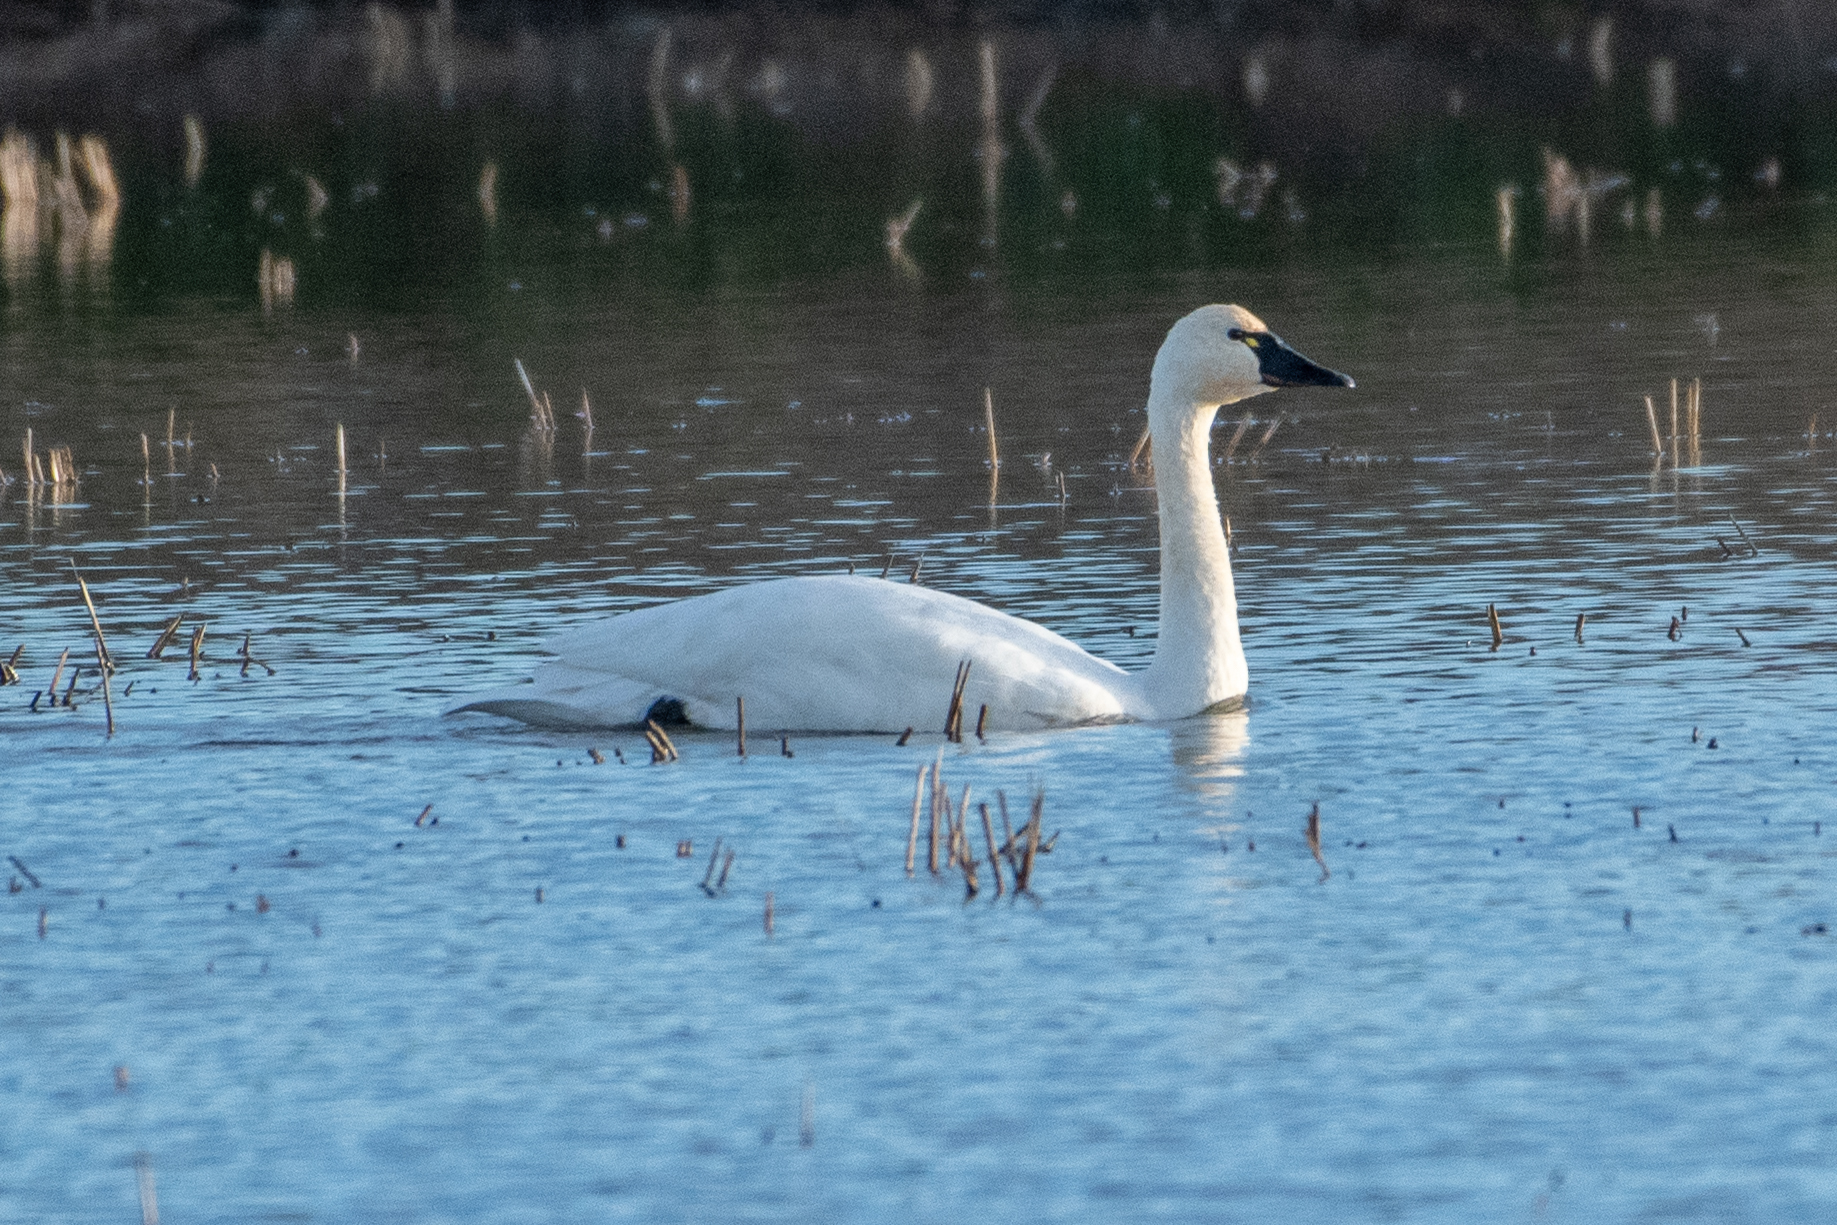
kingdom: Animalia
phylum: Chordata
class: Aves
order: Anseriformes
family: Anatidae
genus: Cygnus
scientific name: Cygnus columbianus
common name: Tundra swan
